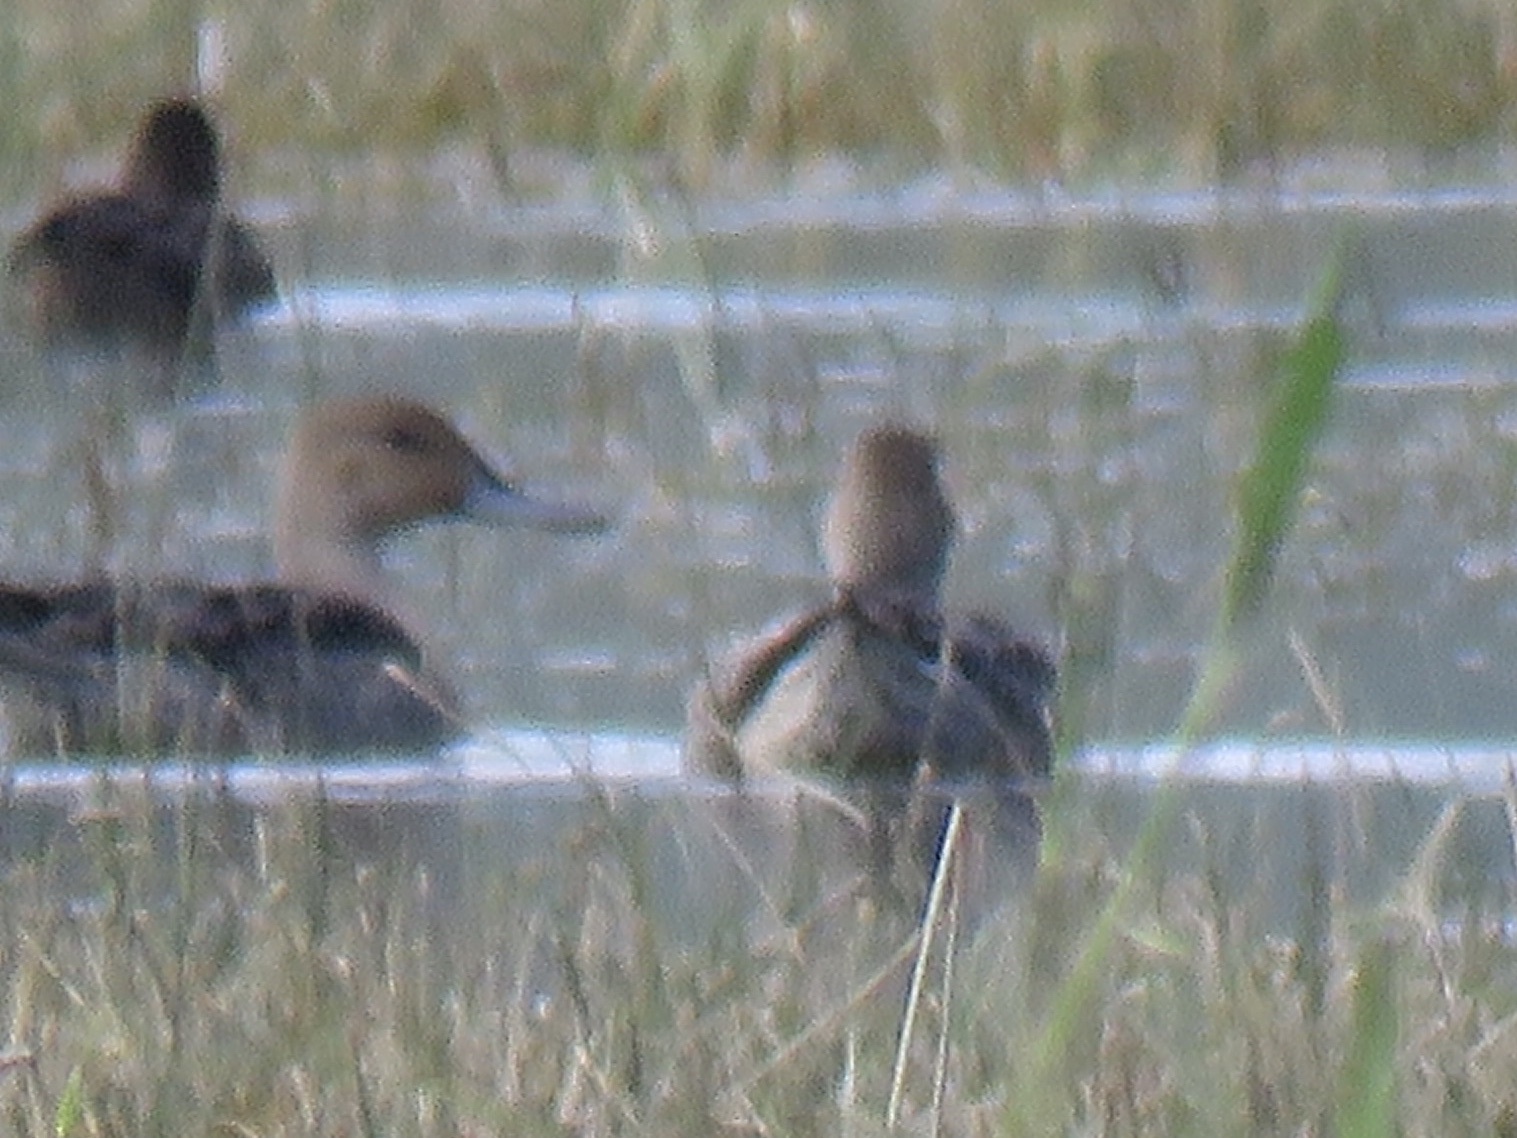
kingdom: Animalia
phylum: Chordata
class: Aves
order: Anseriformes
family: Anatidae
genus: Anas
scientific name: Anas acuta
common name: Northern pintail
